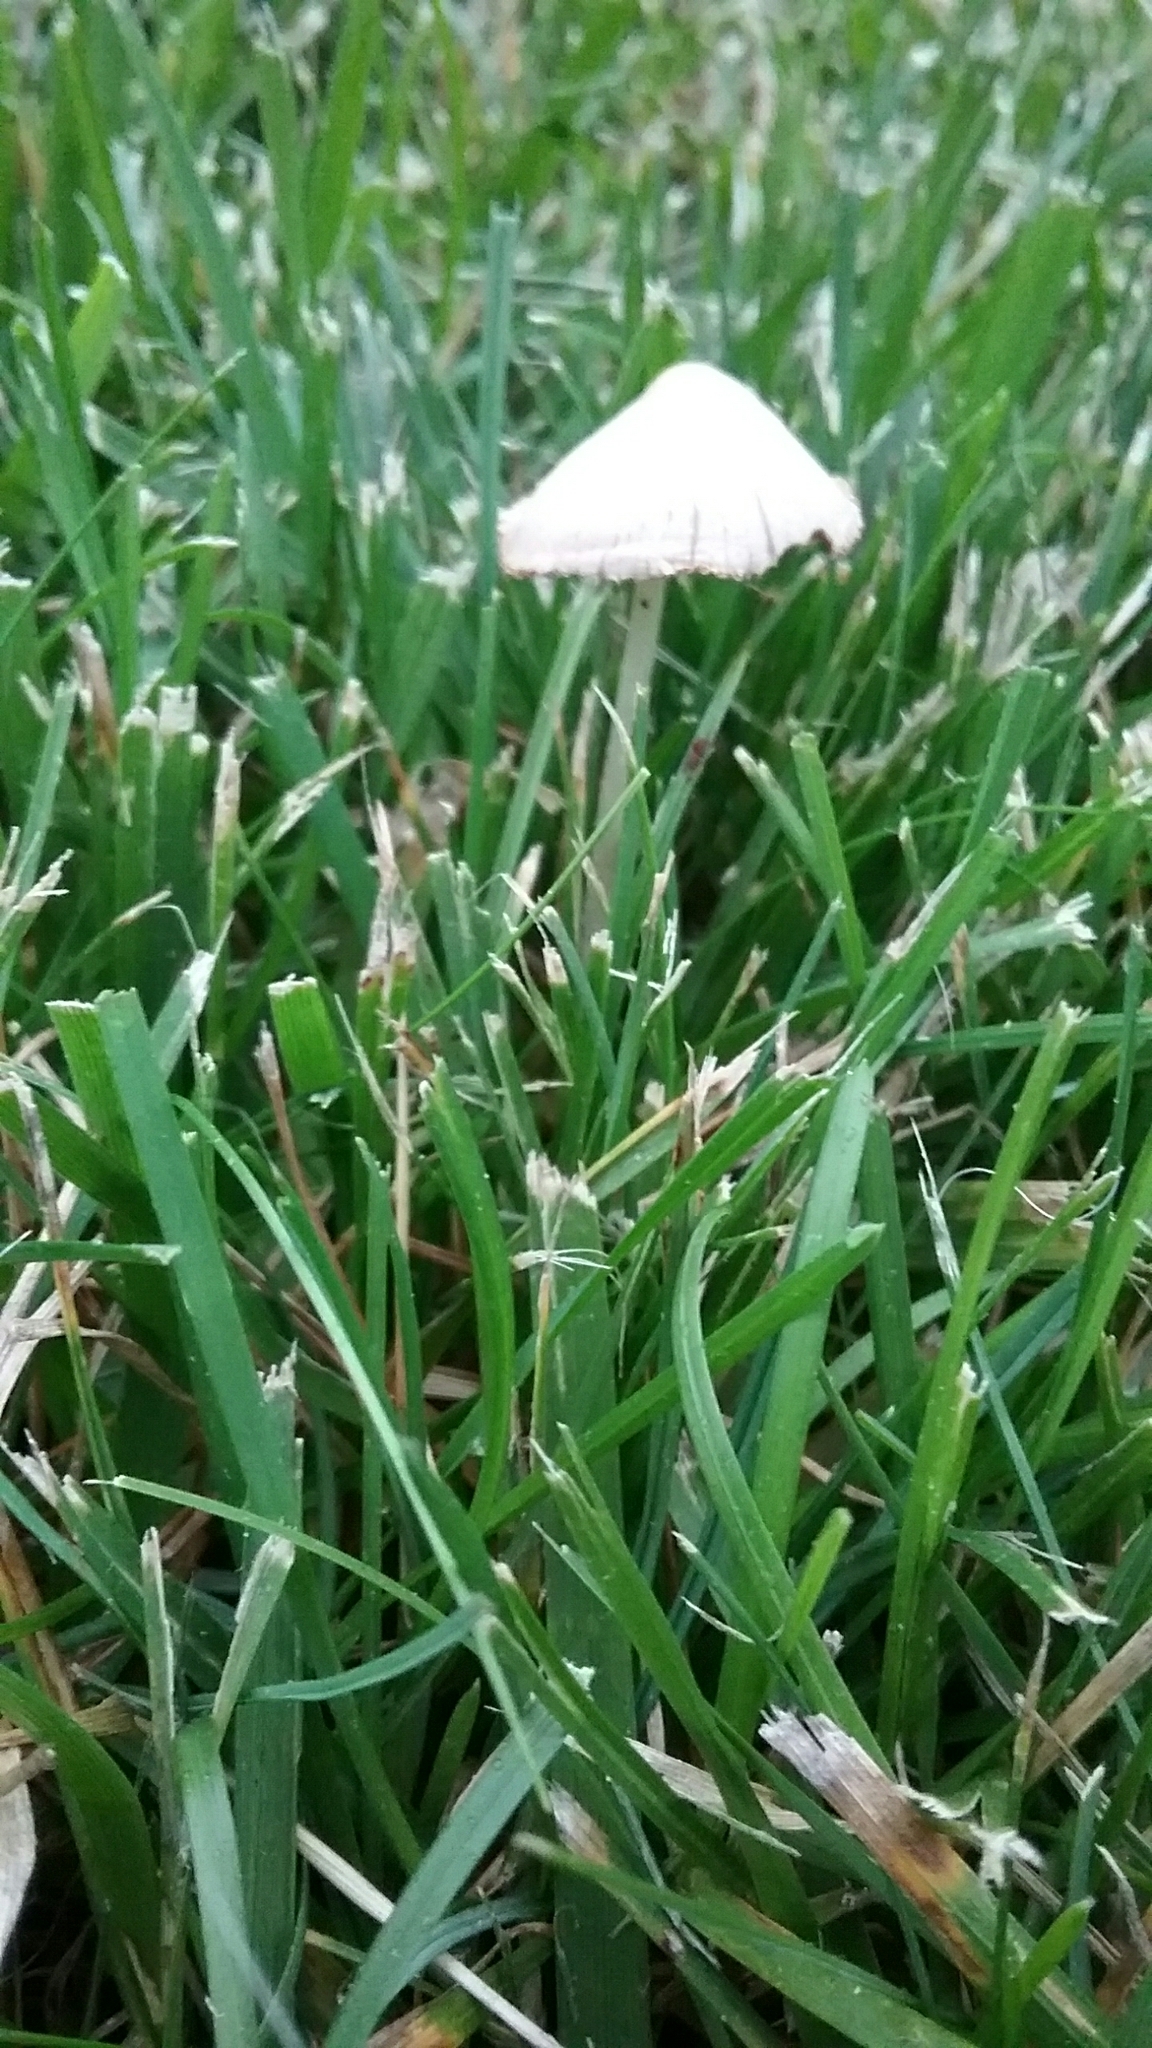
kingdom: Fungi
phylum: Basidiomycota
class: Agaricomycetes
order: Agaricales
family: Bolbitiaceae
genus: Conocybe
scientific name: Conocybe apala
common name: Milky conecap
